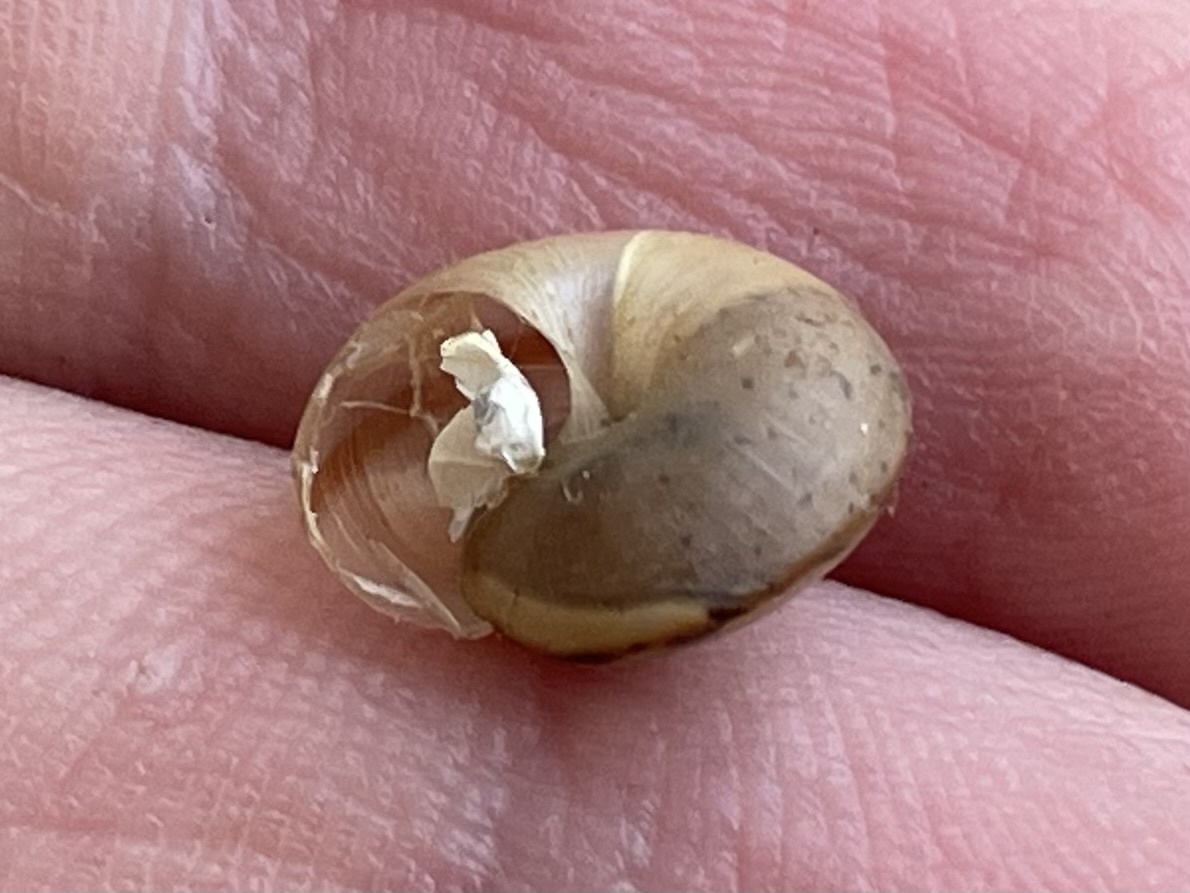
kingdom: Animalia
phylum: Mollusca
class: Gastropoda
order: Stylommatophora
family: Camaenidae
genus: Bradybaena
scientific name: Bradybaena similaris
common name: Asian trampsnail
